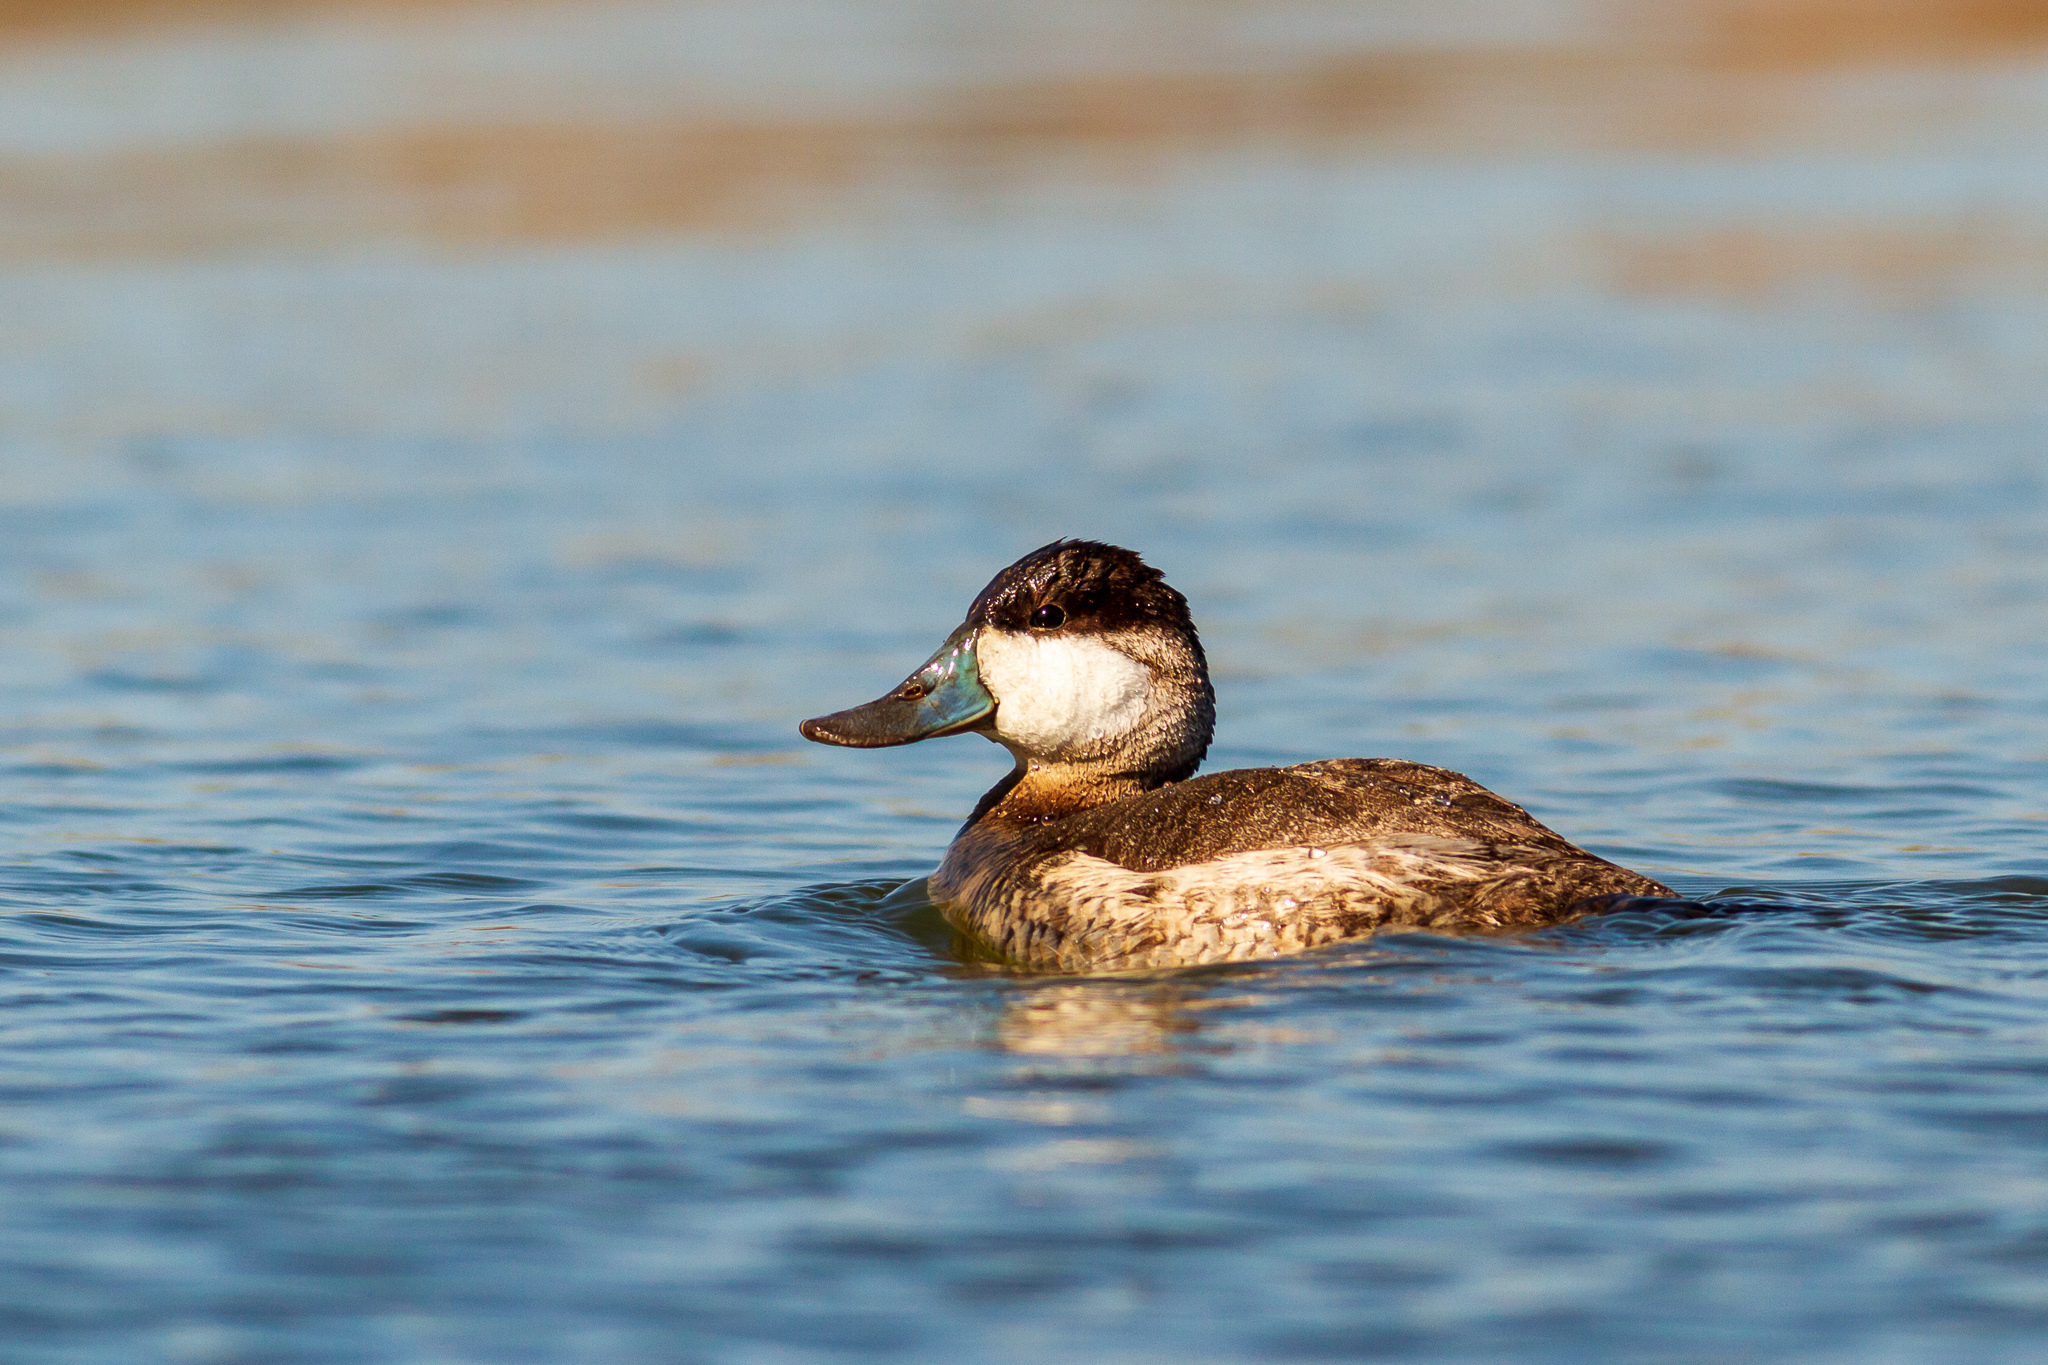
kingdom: Animalia
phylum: Chordata
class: Aves
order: Anseriformes
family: Anatidae
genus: Oxyura
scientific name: Oxyura jamaicensis
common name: Ruddy duck
